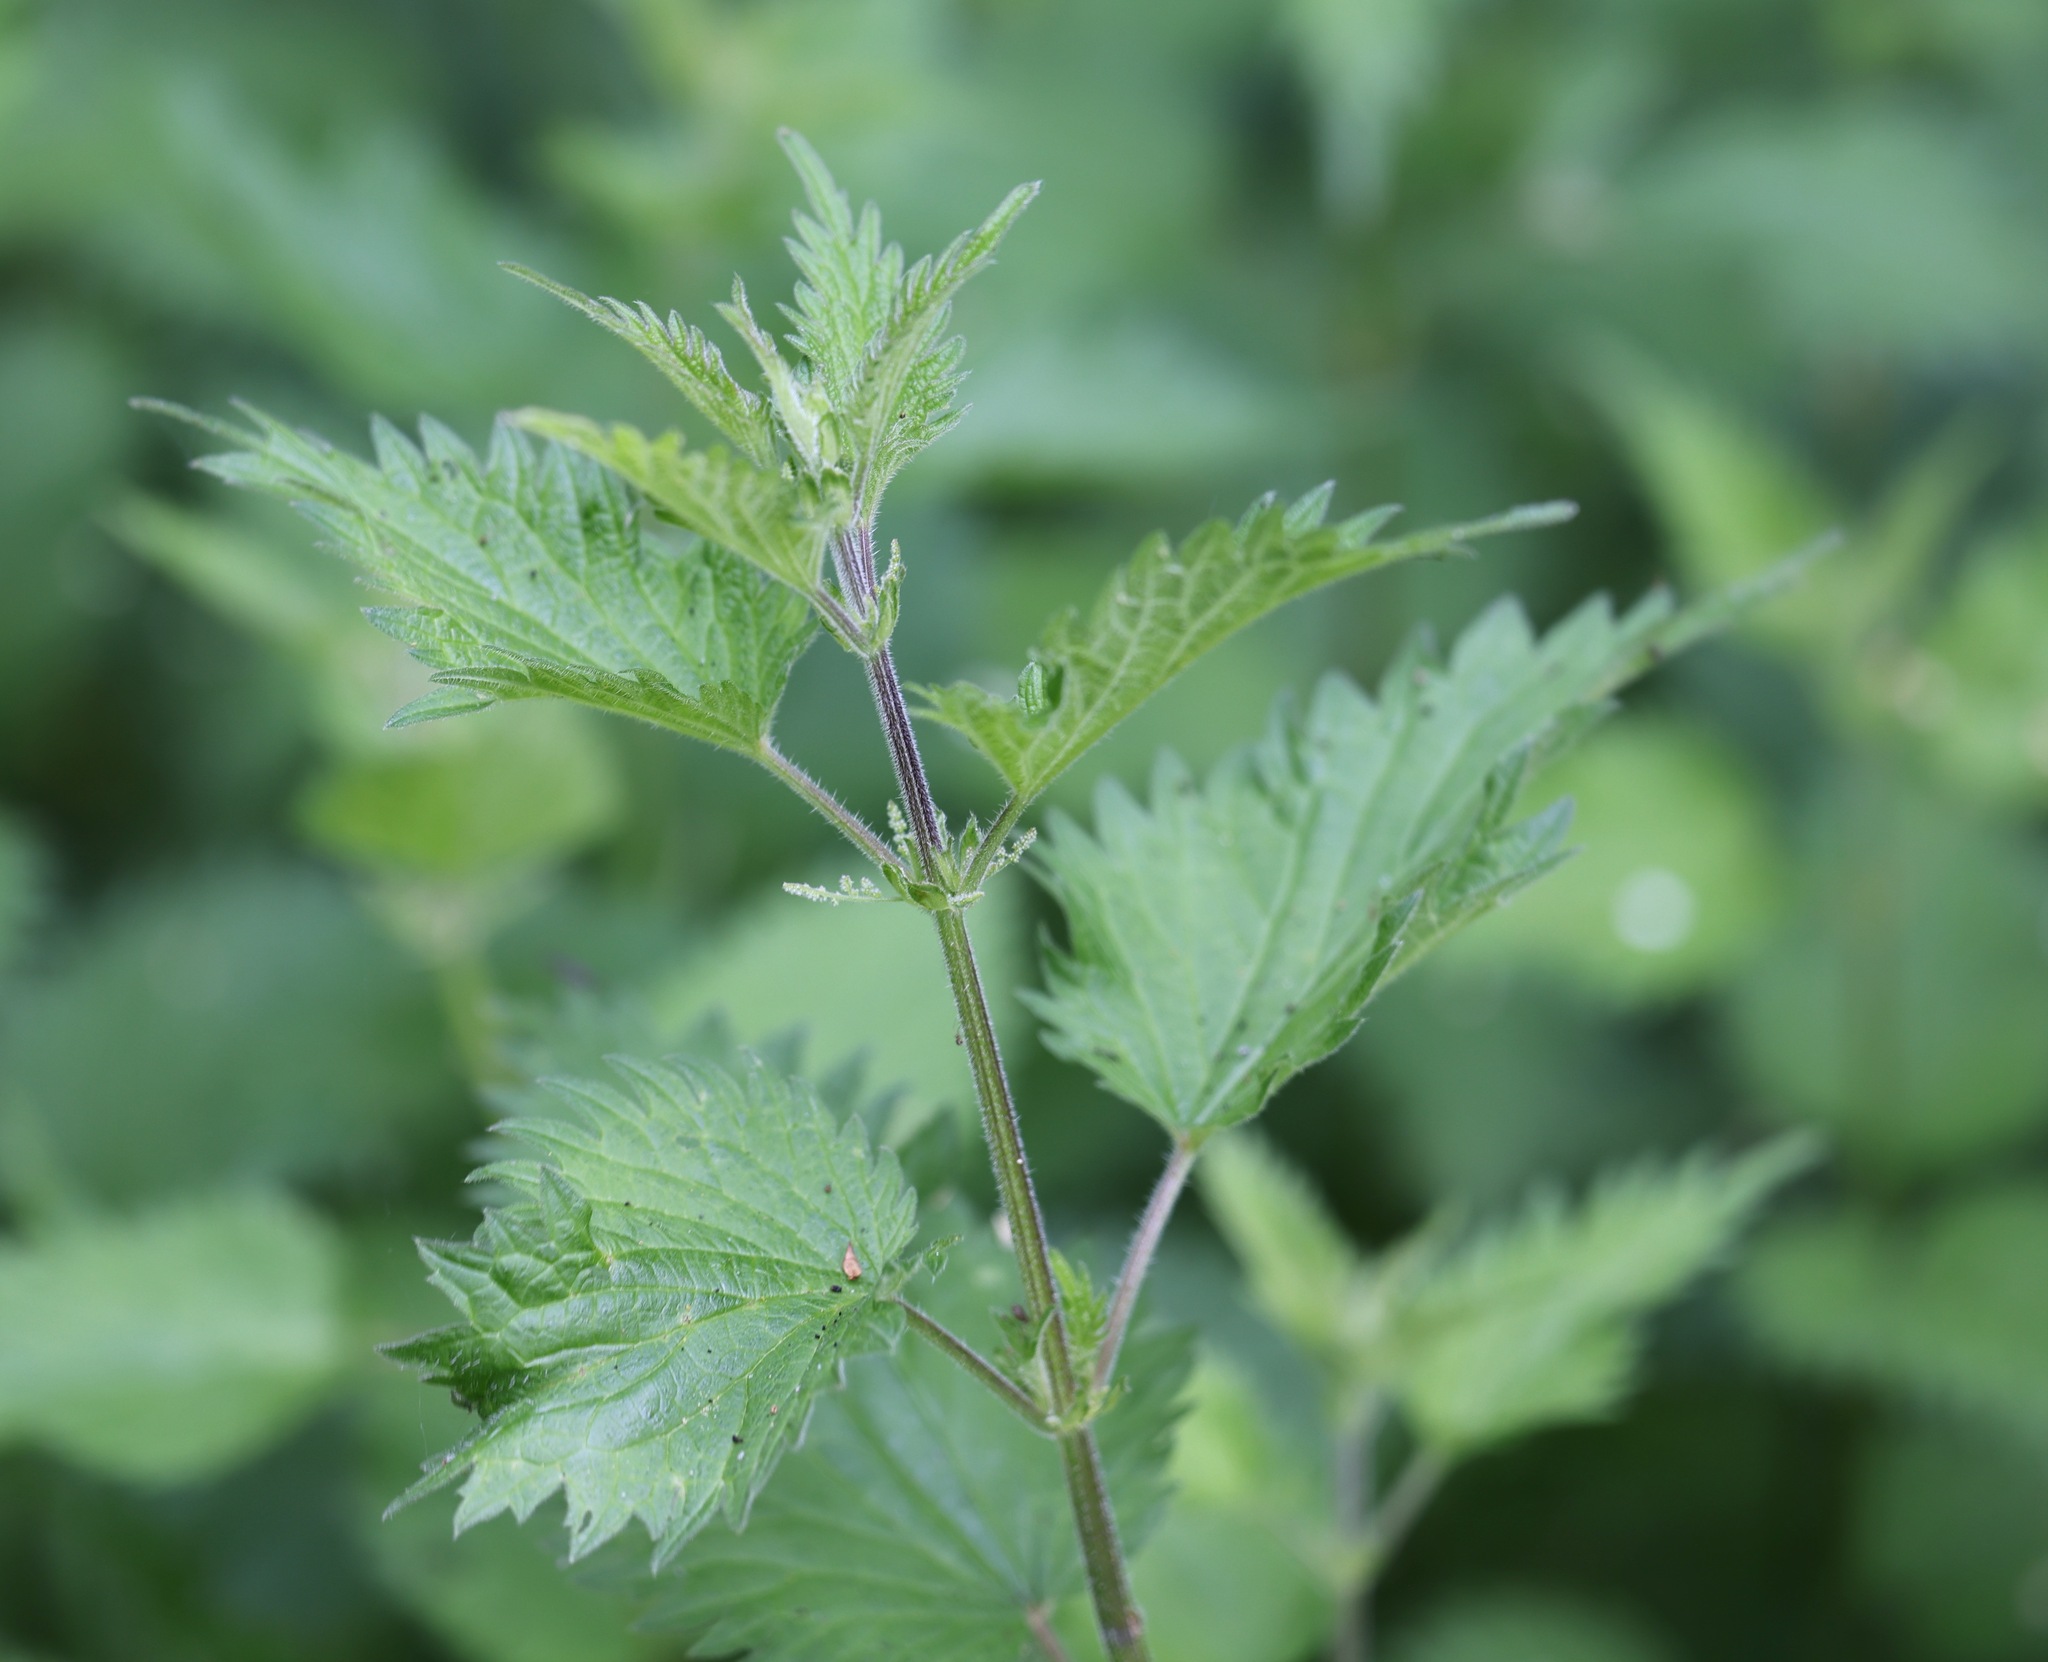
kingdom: Plantae
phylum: Tracheophyta
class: Magnoliopsida
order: Rosales
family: Urticaceae
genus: Urtica
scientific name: Urtica dioica
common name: Common nettle
